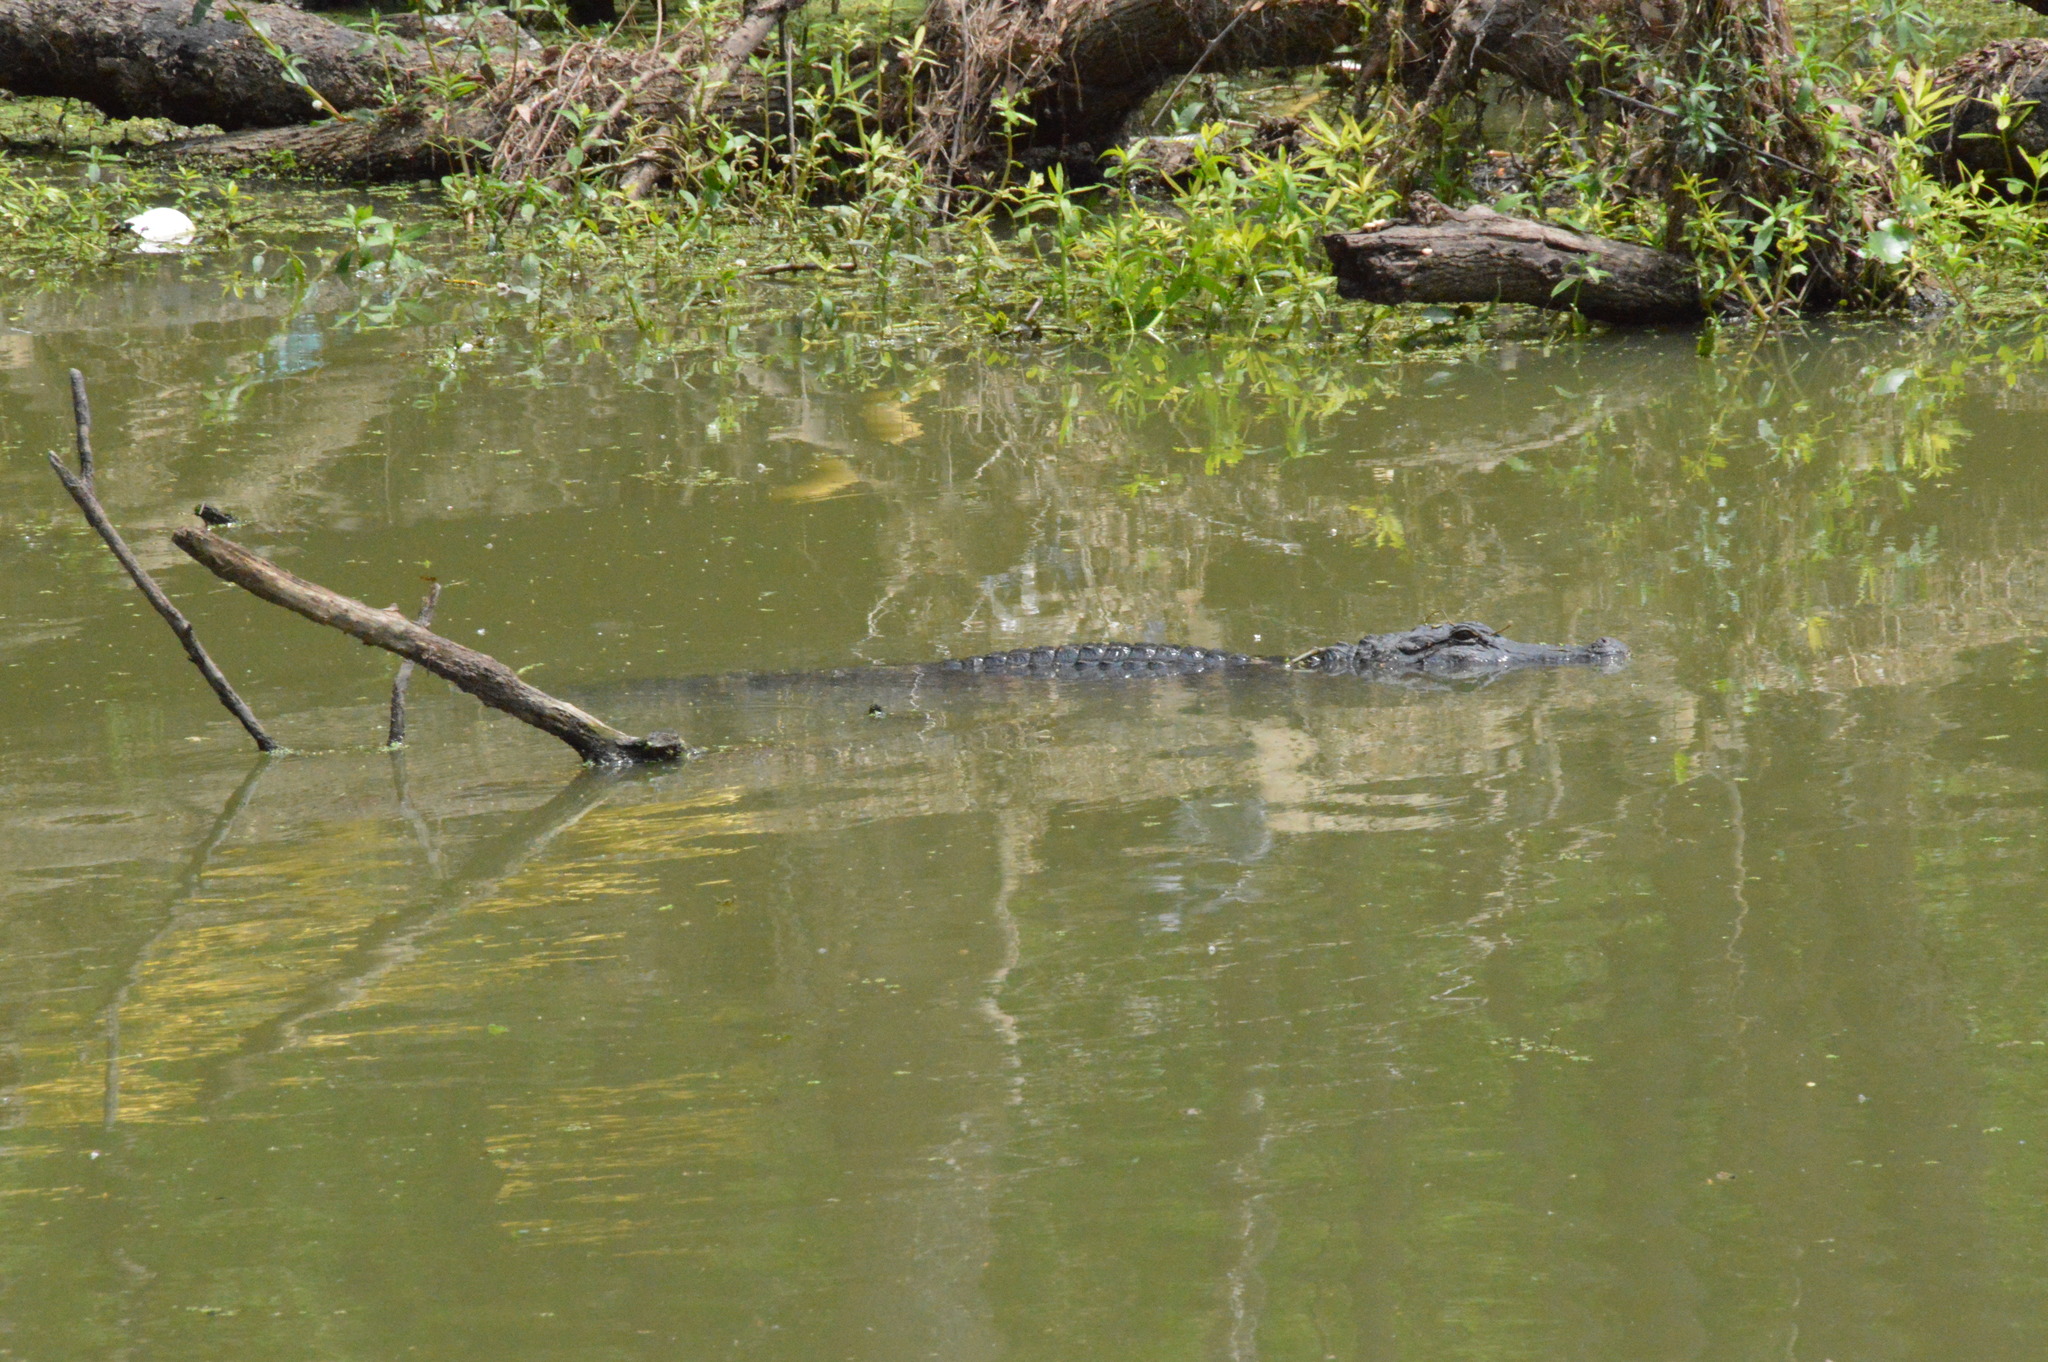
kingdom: Animalia
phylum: Chordata
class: Crocodylia
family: Alligatoridae
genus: Alligator
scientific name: Alligator mississippiensis
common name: American alligator
